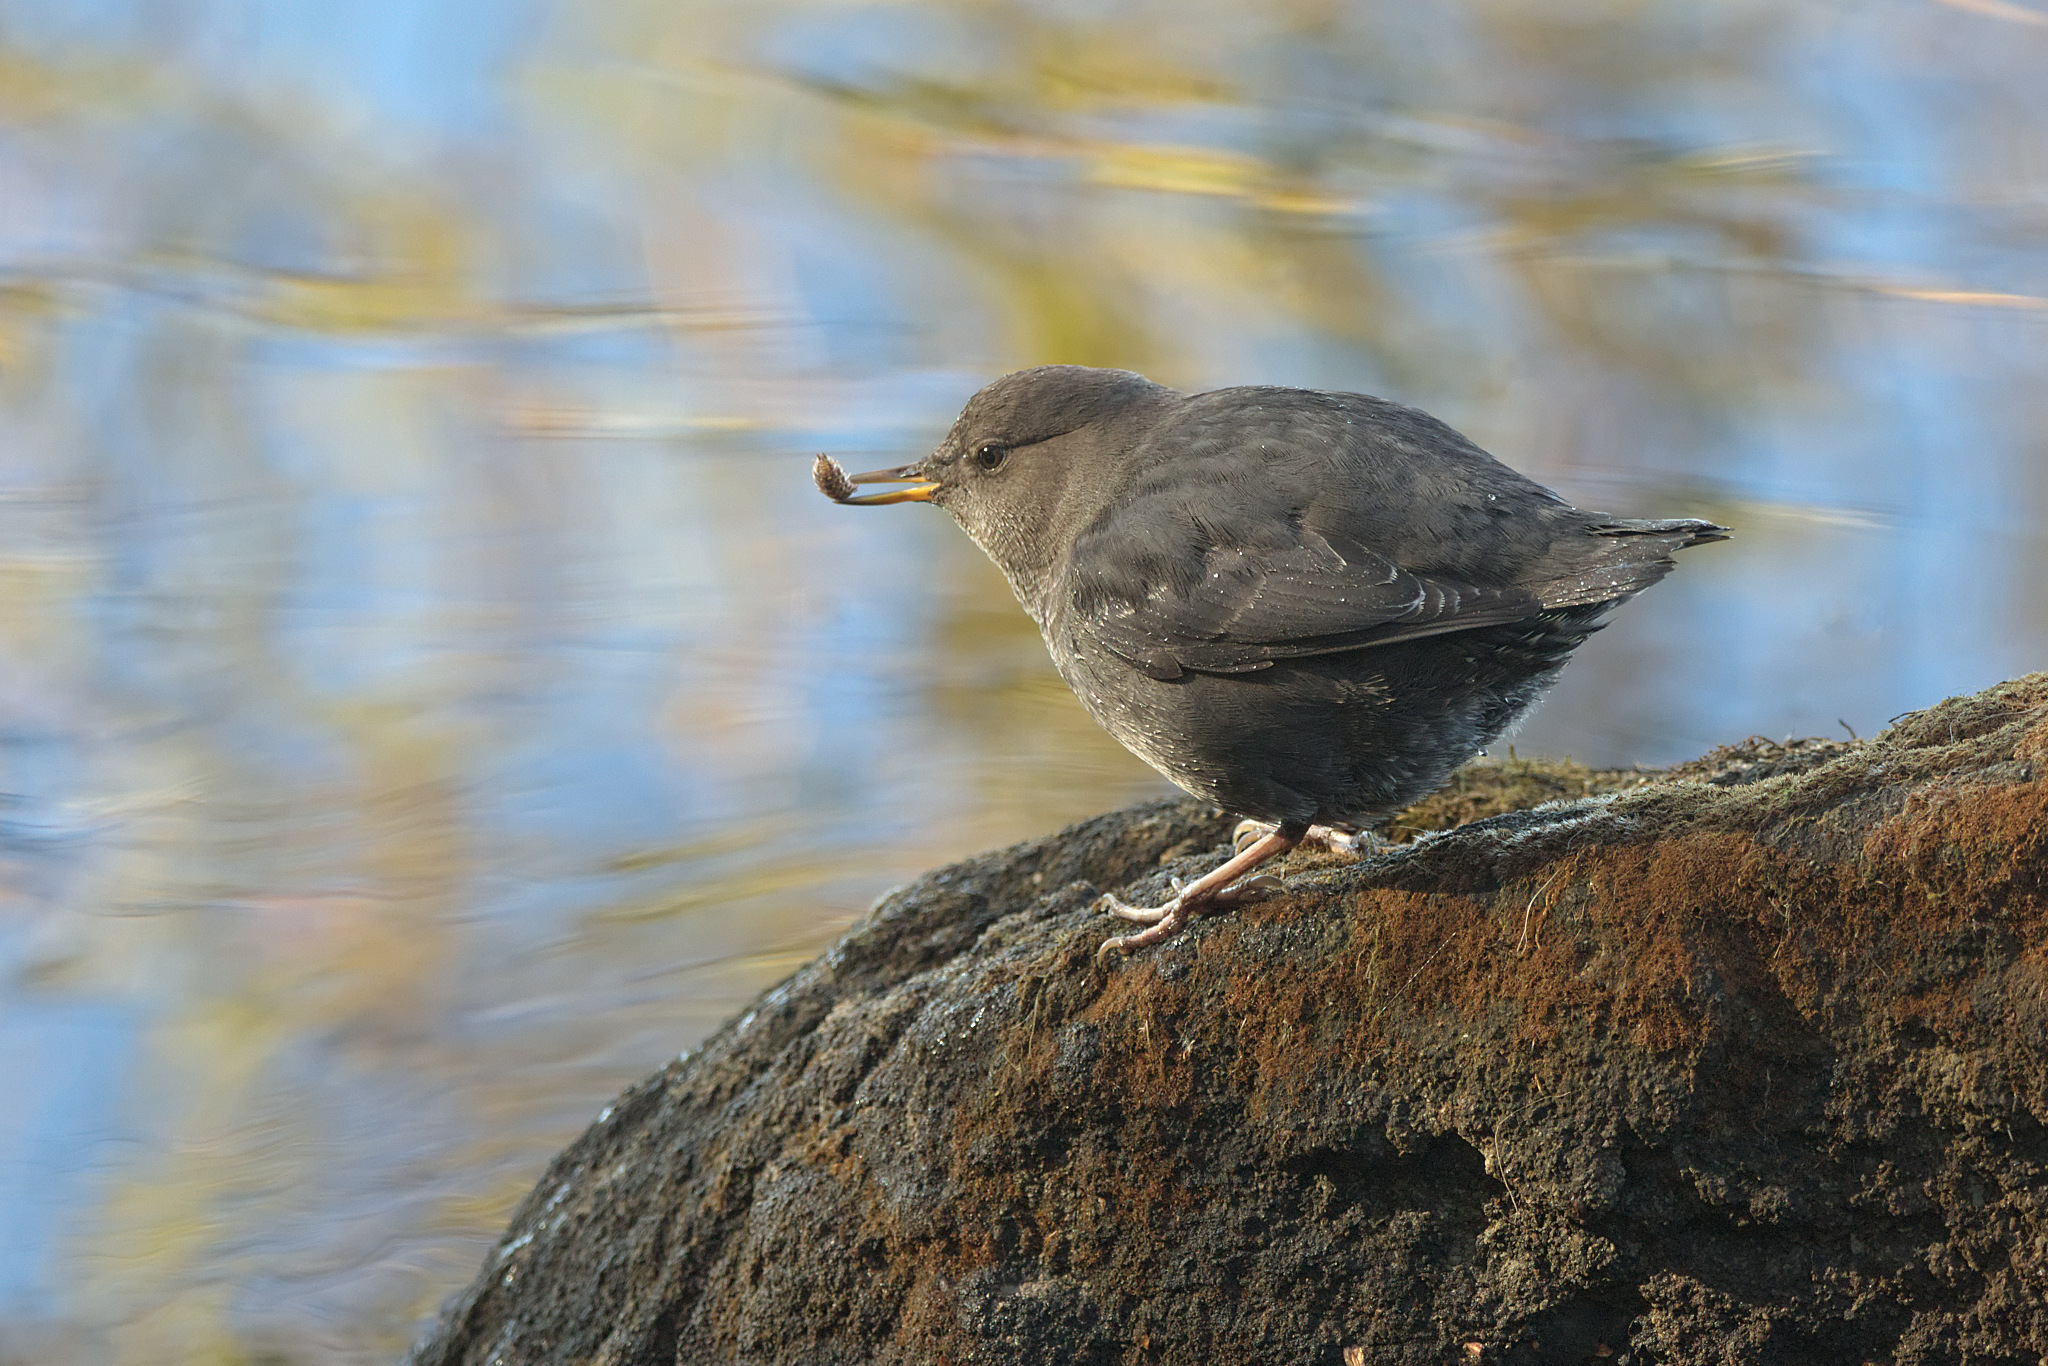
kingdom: Animalia
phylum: Chordata
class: Aves
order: Passeriformes
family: Cinclidae
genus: Cinclus
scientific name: Cinclus mexicanus
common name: American dipper
